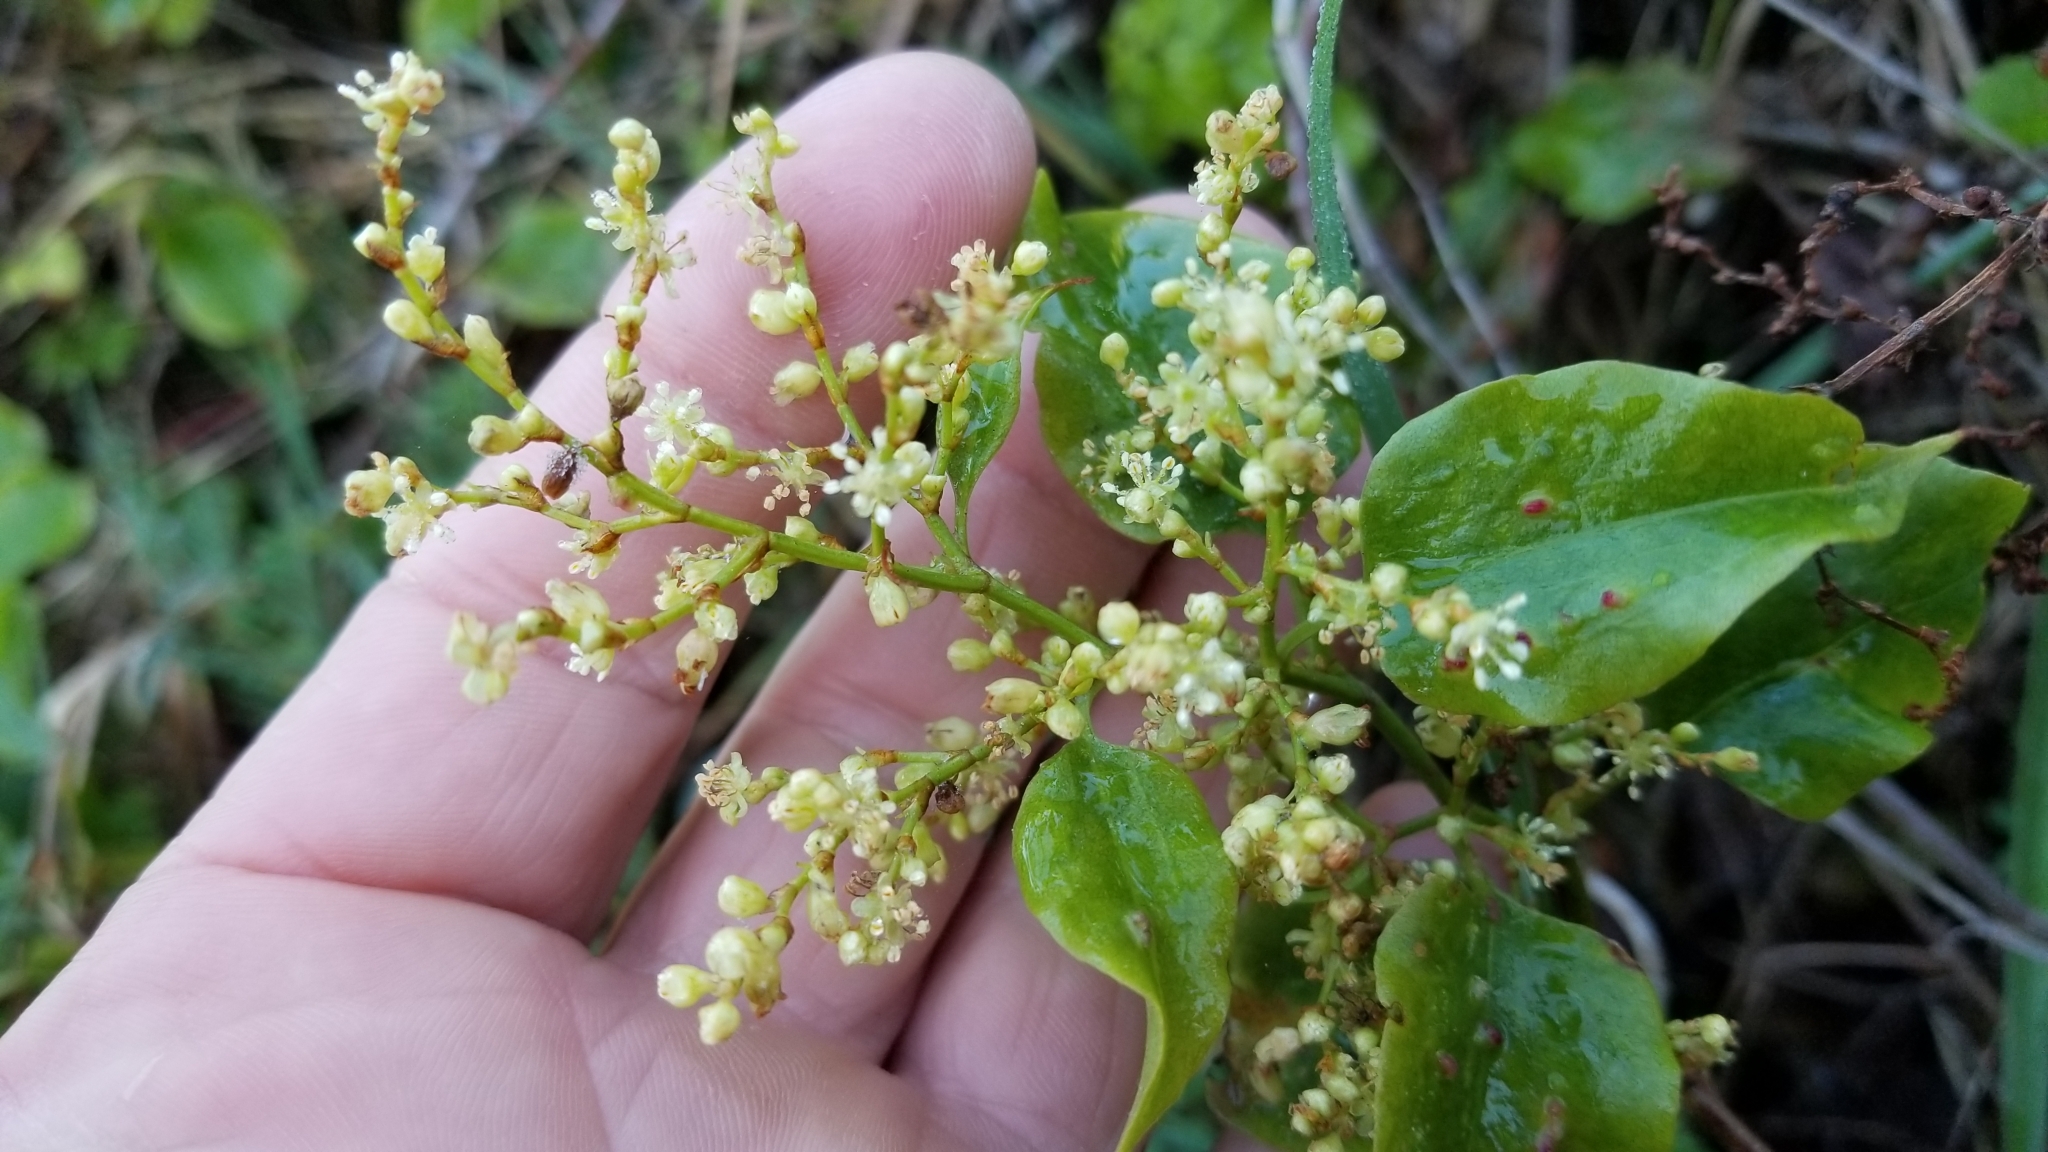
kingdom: Plantae
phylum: Tracheophyta
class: Magnoliopsida
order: Caryophyllales
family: Polygonaceae
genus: Muehlenbeckia
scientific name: Muehlenbeckia australis
